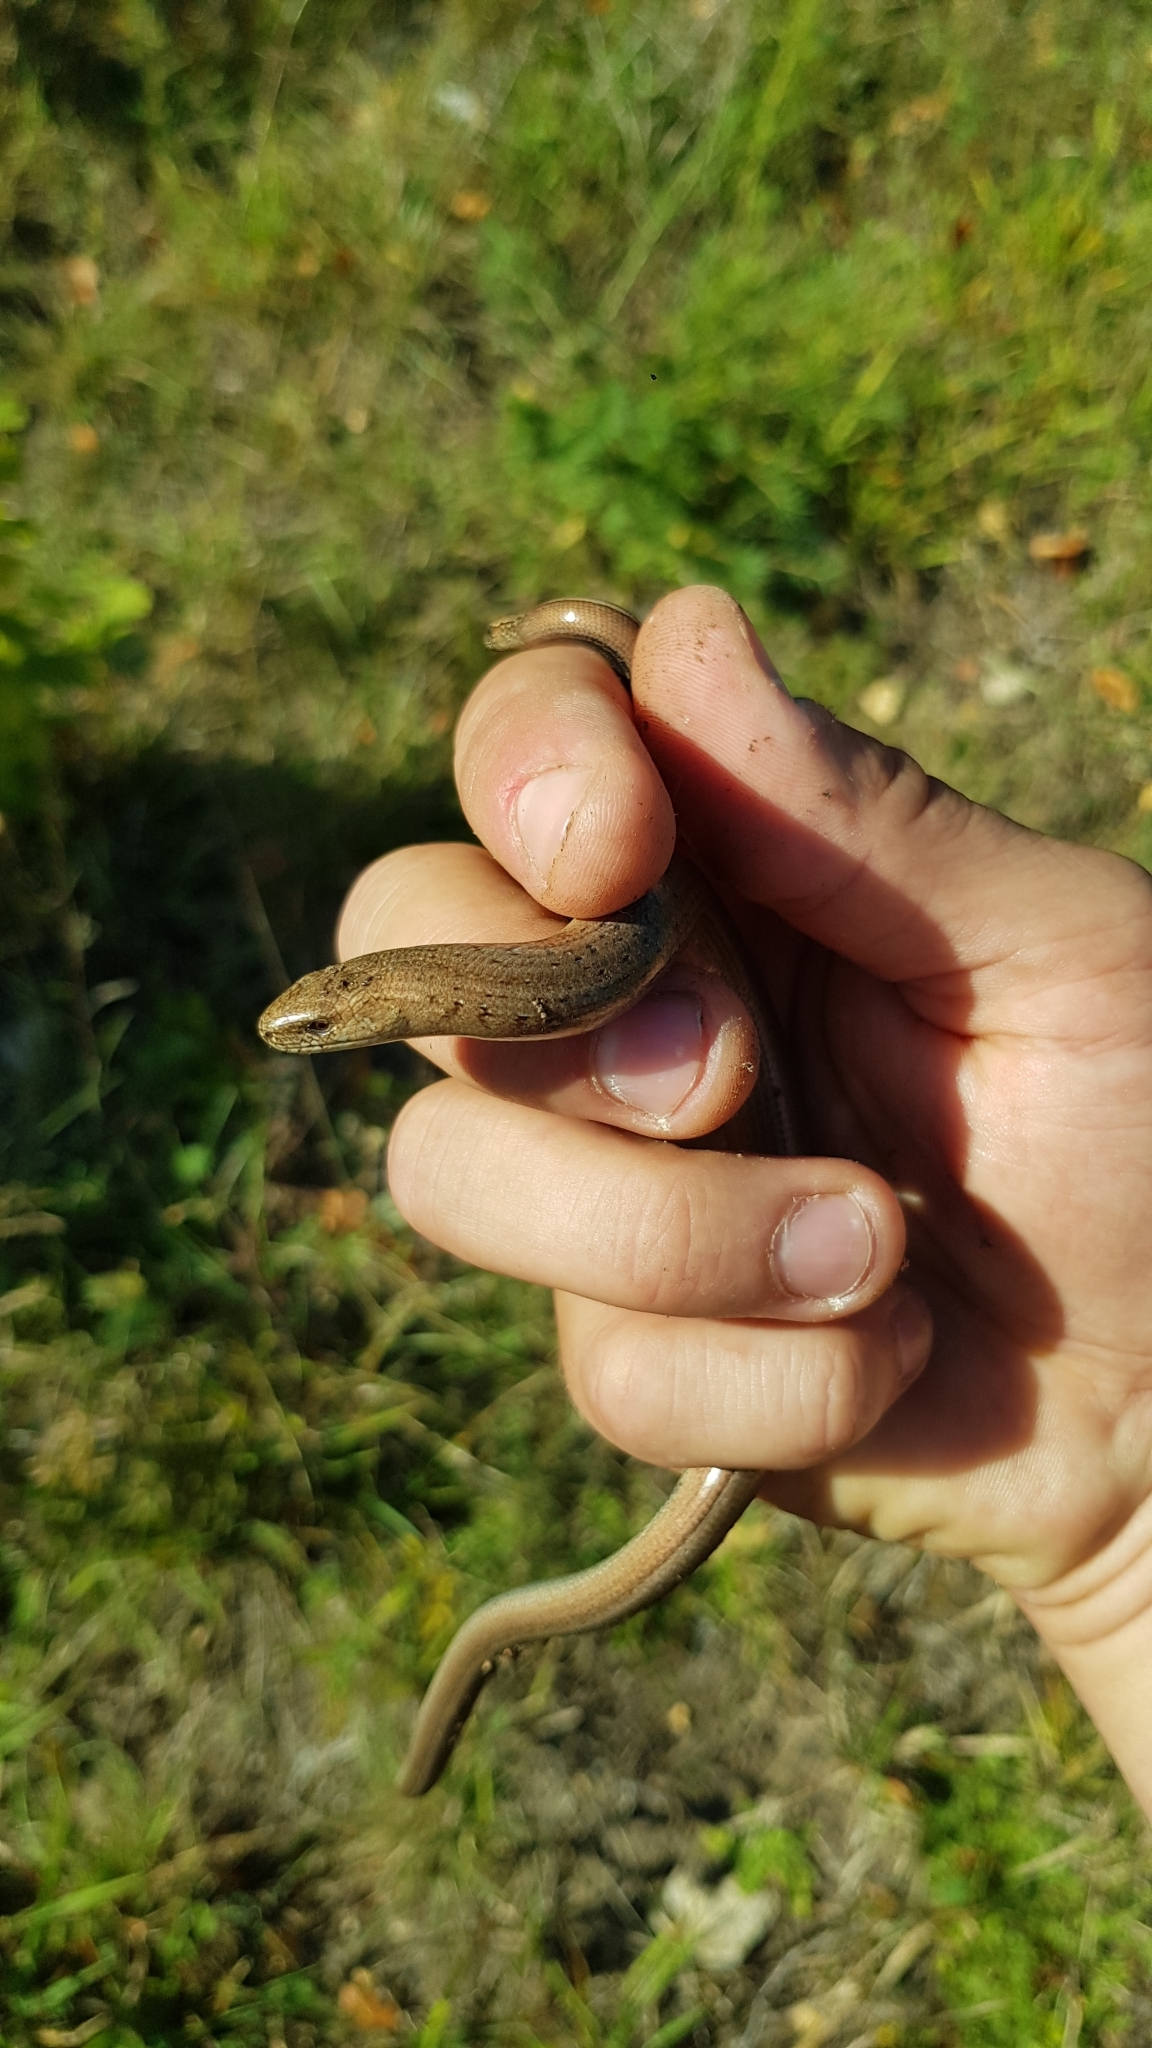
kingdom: Animalia
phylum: Chordata
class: Squamata
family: Anguidae
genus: Anguis
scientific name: Anguis fragilis
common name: Slow worm
